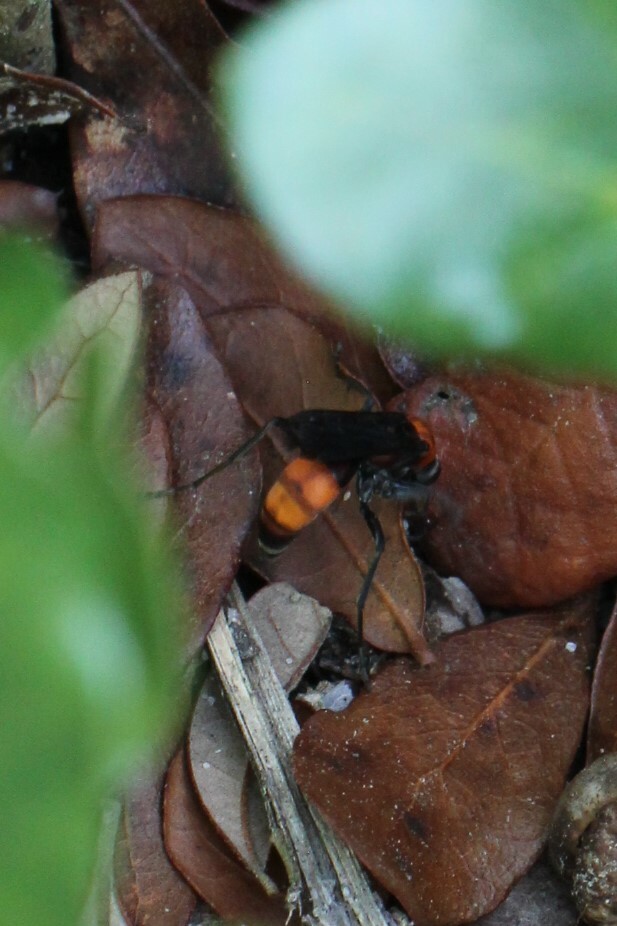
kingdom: Animalia
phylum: Arthropoda
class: Insecta
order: Hymenoptera
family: Pompilidae
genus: Psorthaspis
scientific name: Psorthaspis sanguinea
